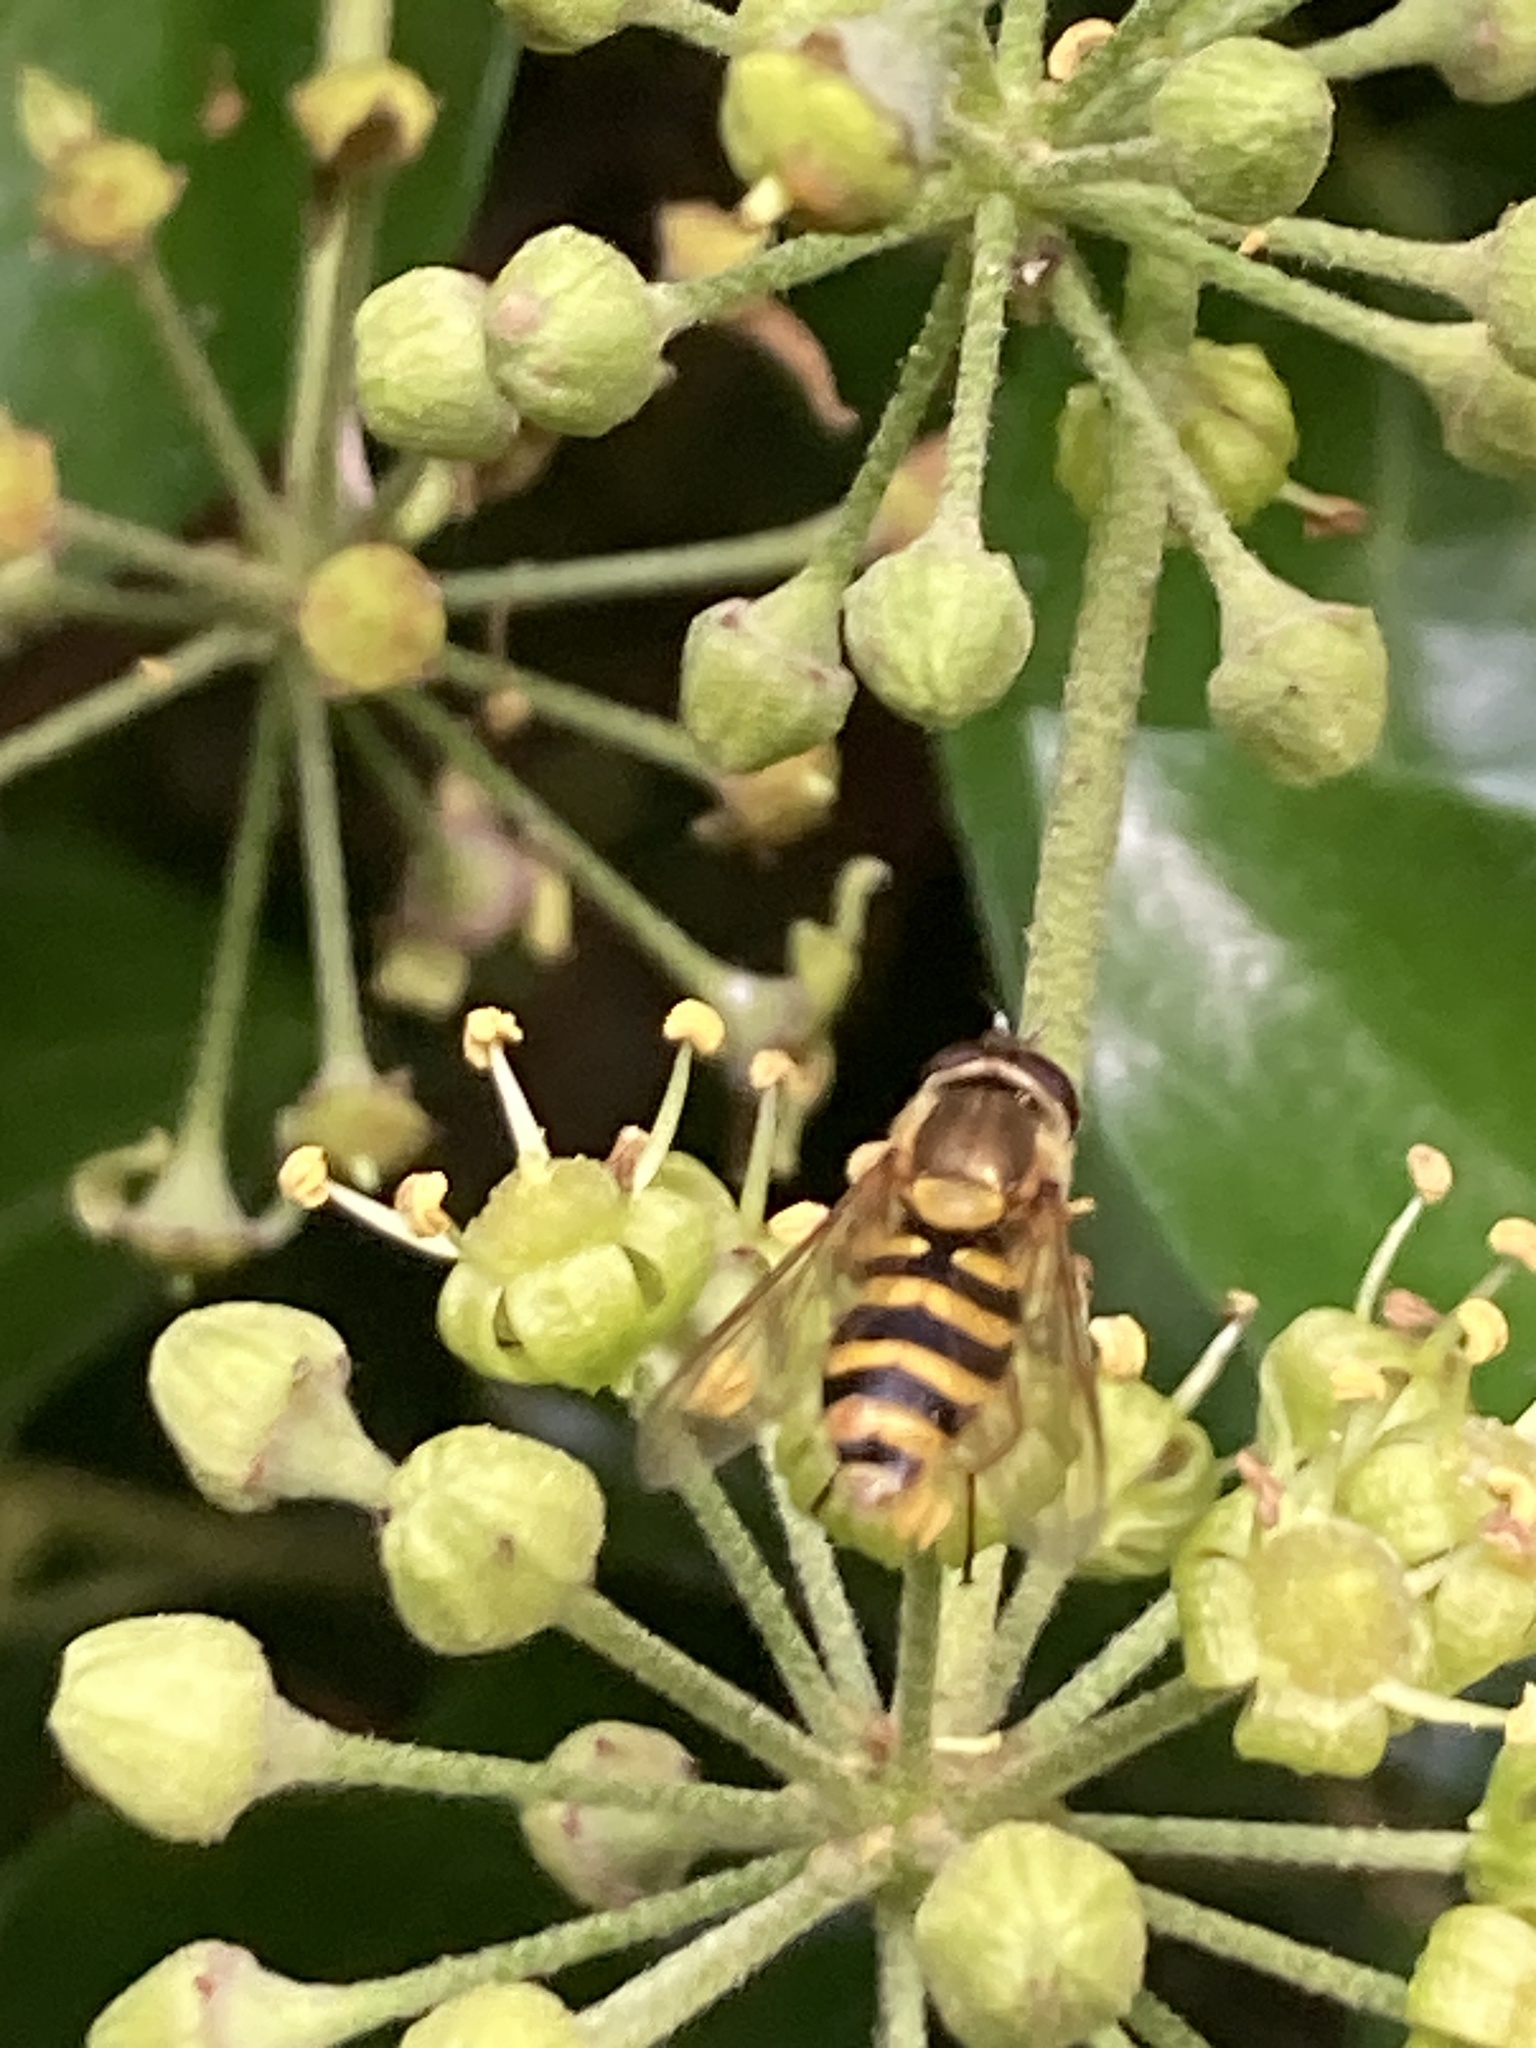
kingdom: Animalia
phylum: Arthropoda
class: Insecta
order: Diptera
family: Syrphidae
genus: Syrphus
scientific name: Syrphus ribesii
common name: Common flower fly
